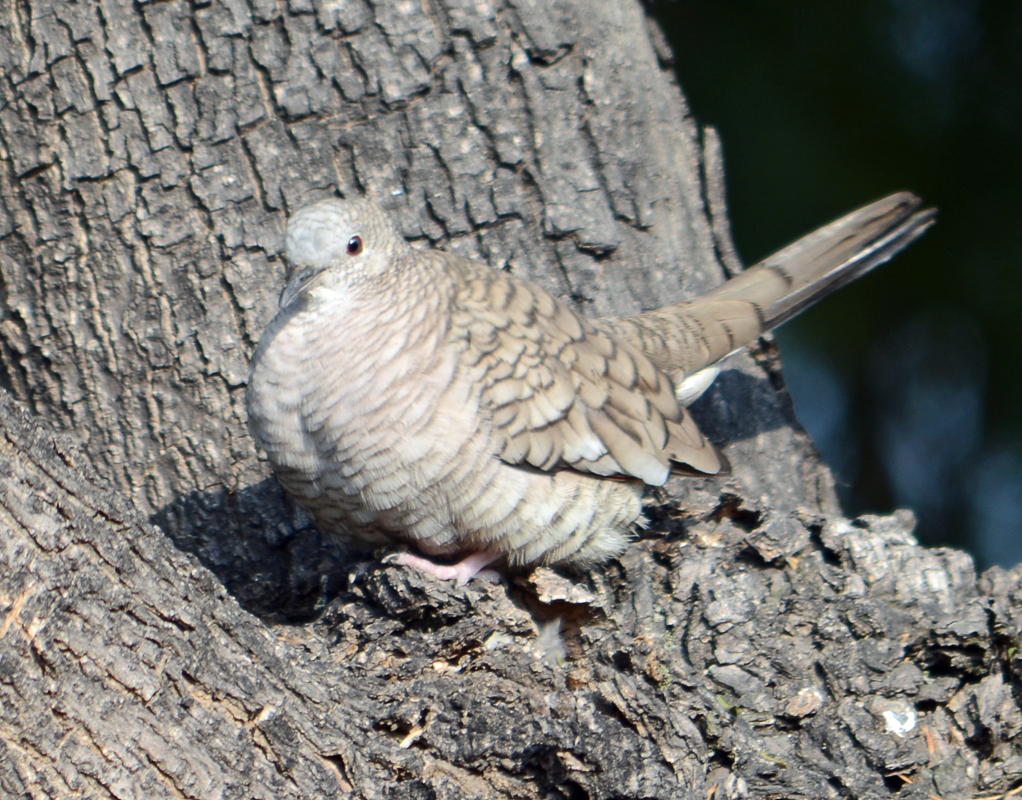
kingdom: Animalia
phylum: Chordata
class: Aves
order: Columbiformes
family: Columbidae
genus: Columbina
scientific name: Columbina inca
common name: Inca dove
